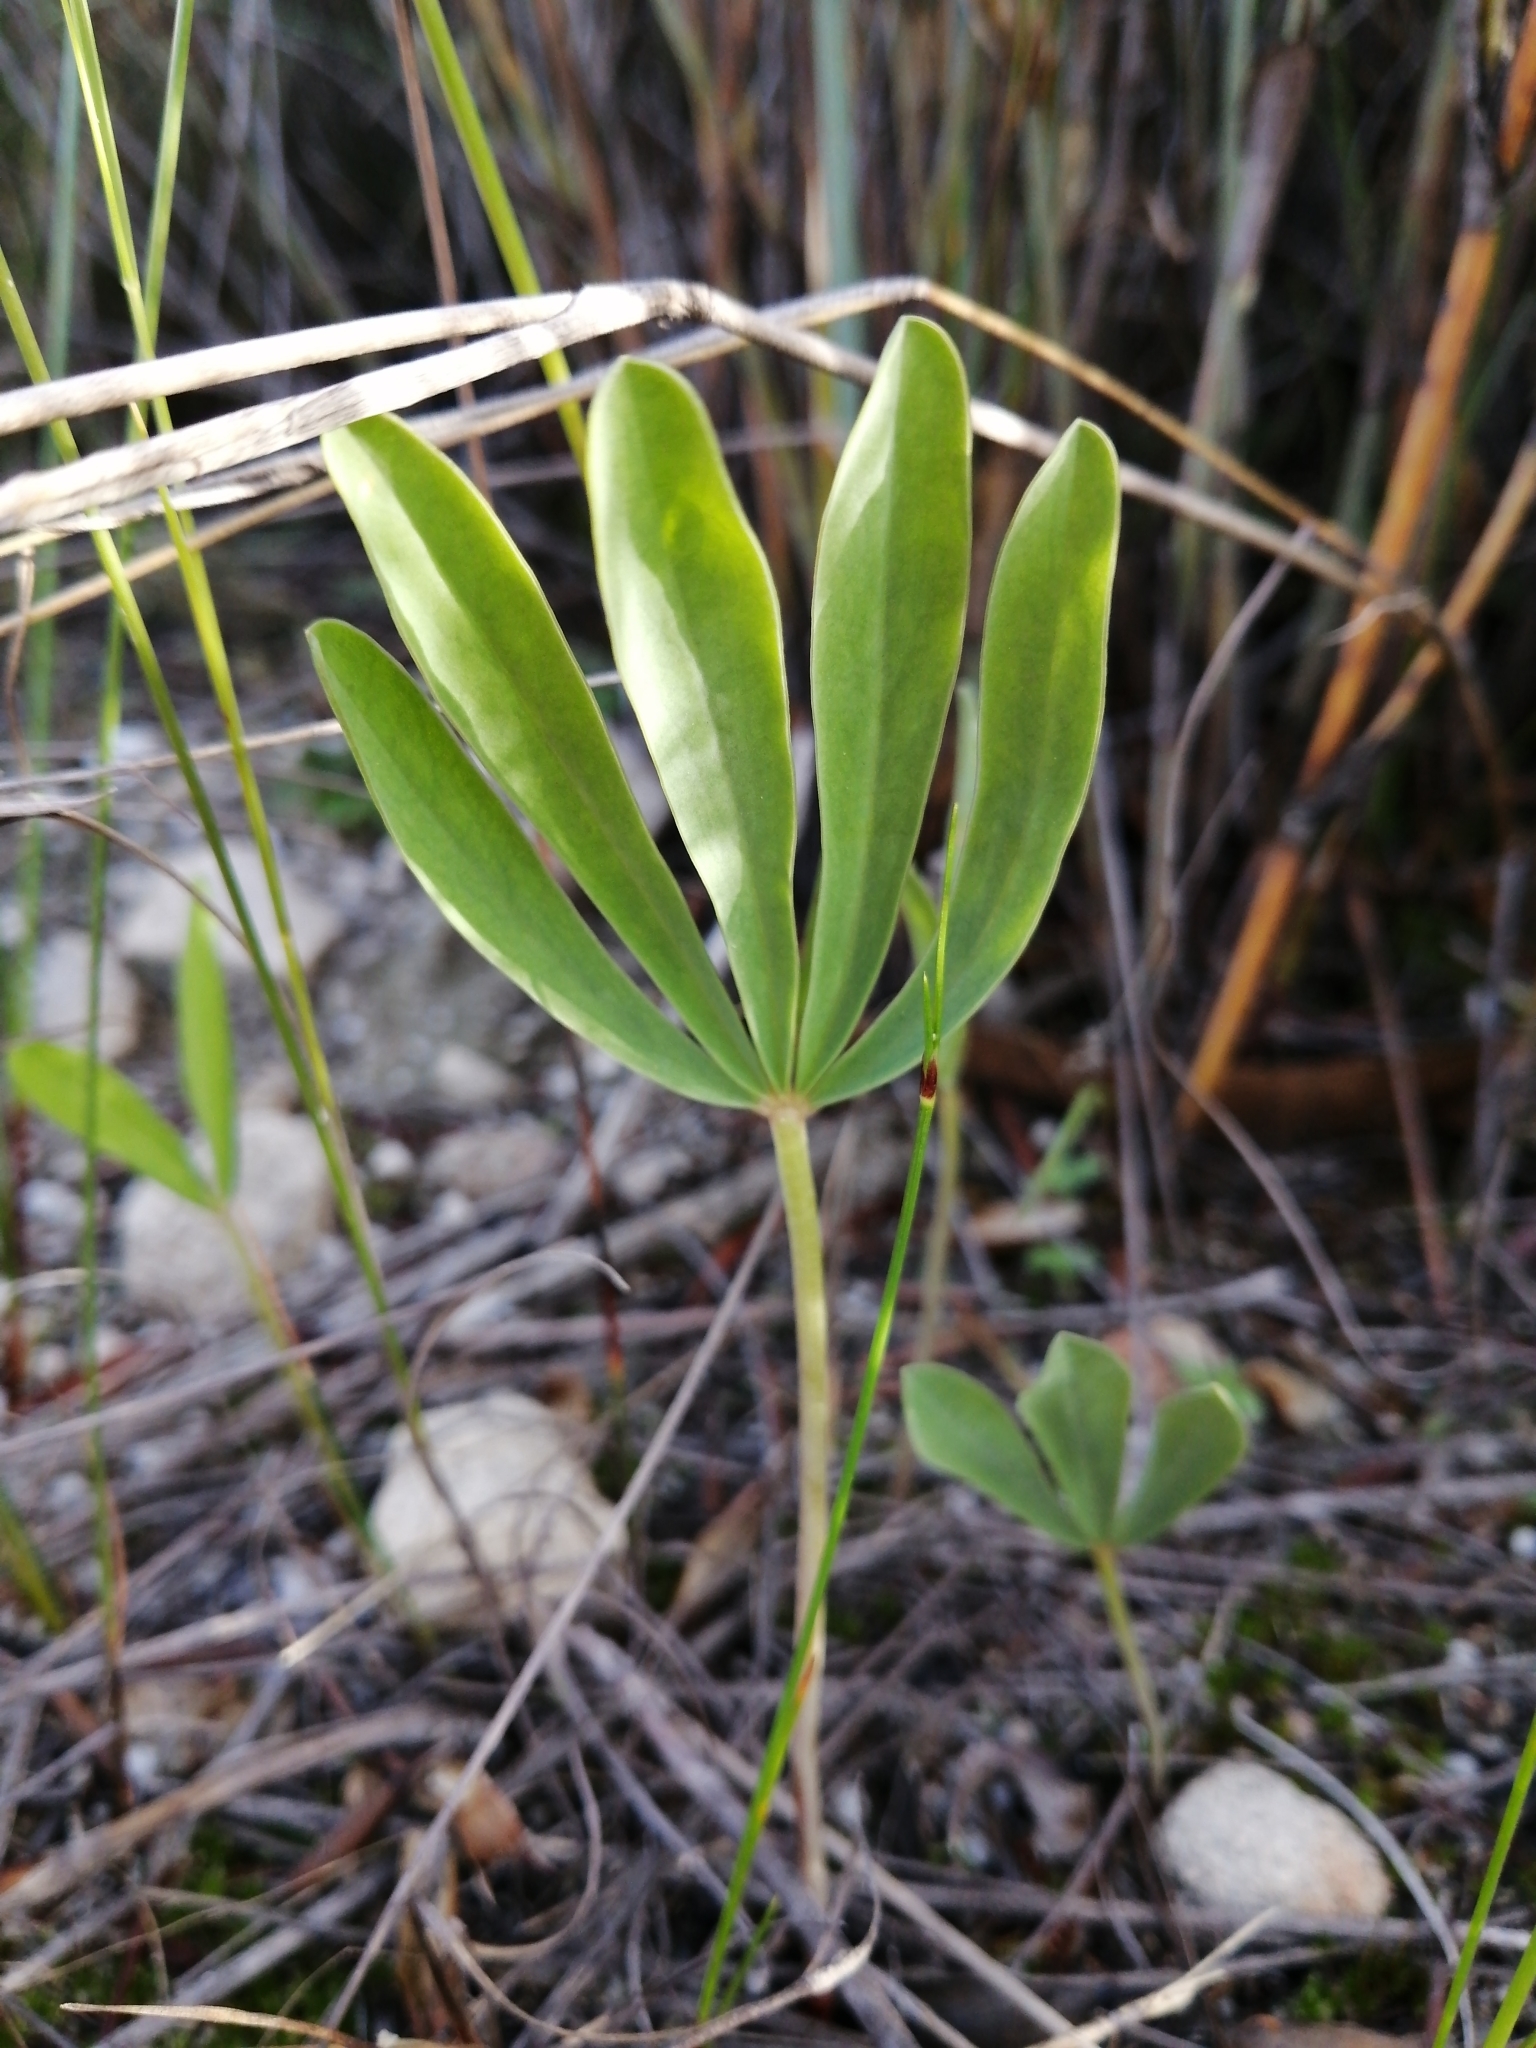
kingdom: Plantae
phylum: Tracheophyta
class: Magnoliopsida
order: Oxalidales
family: Oxalidaceae
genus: Oxalis
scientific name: Oxalis flava
